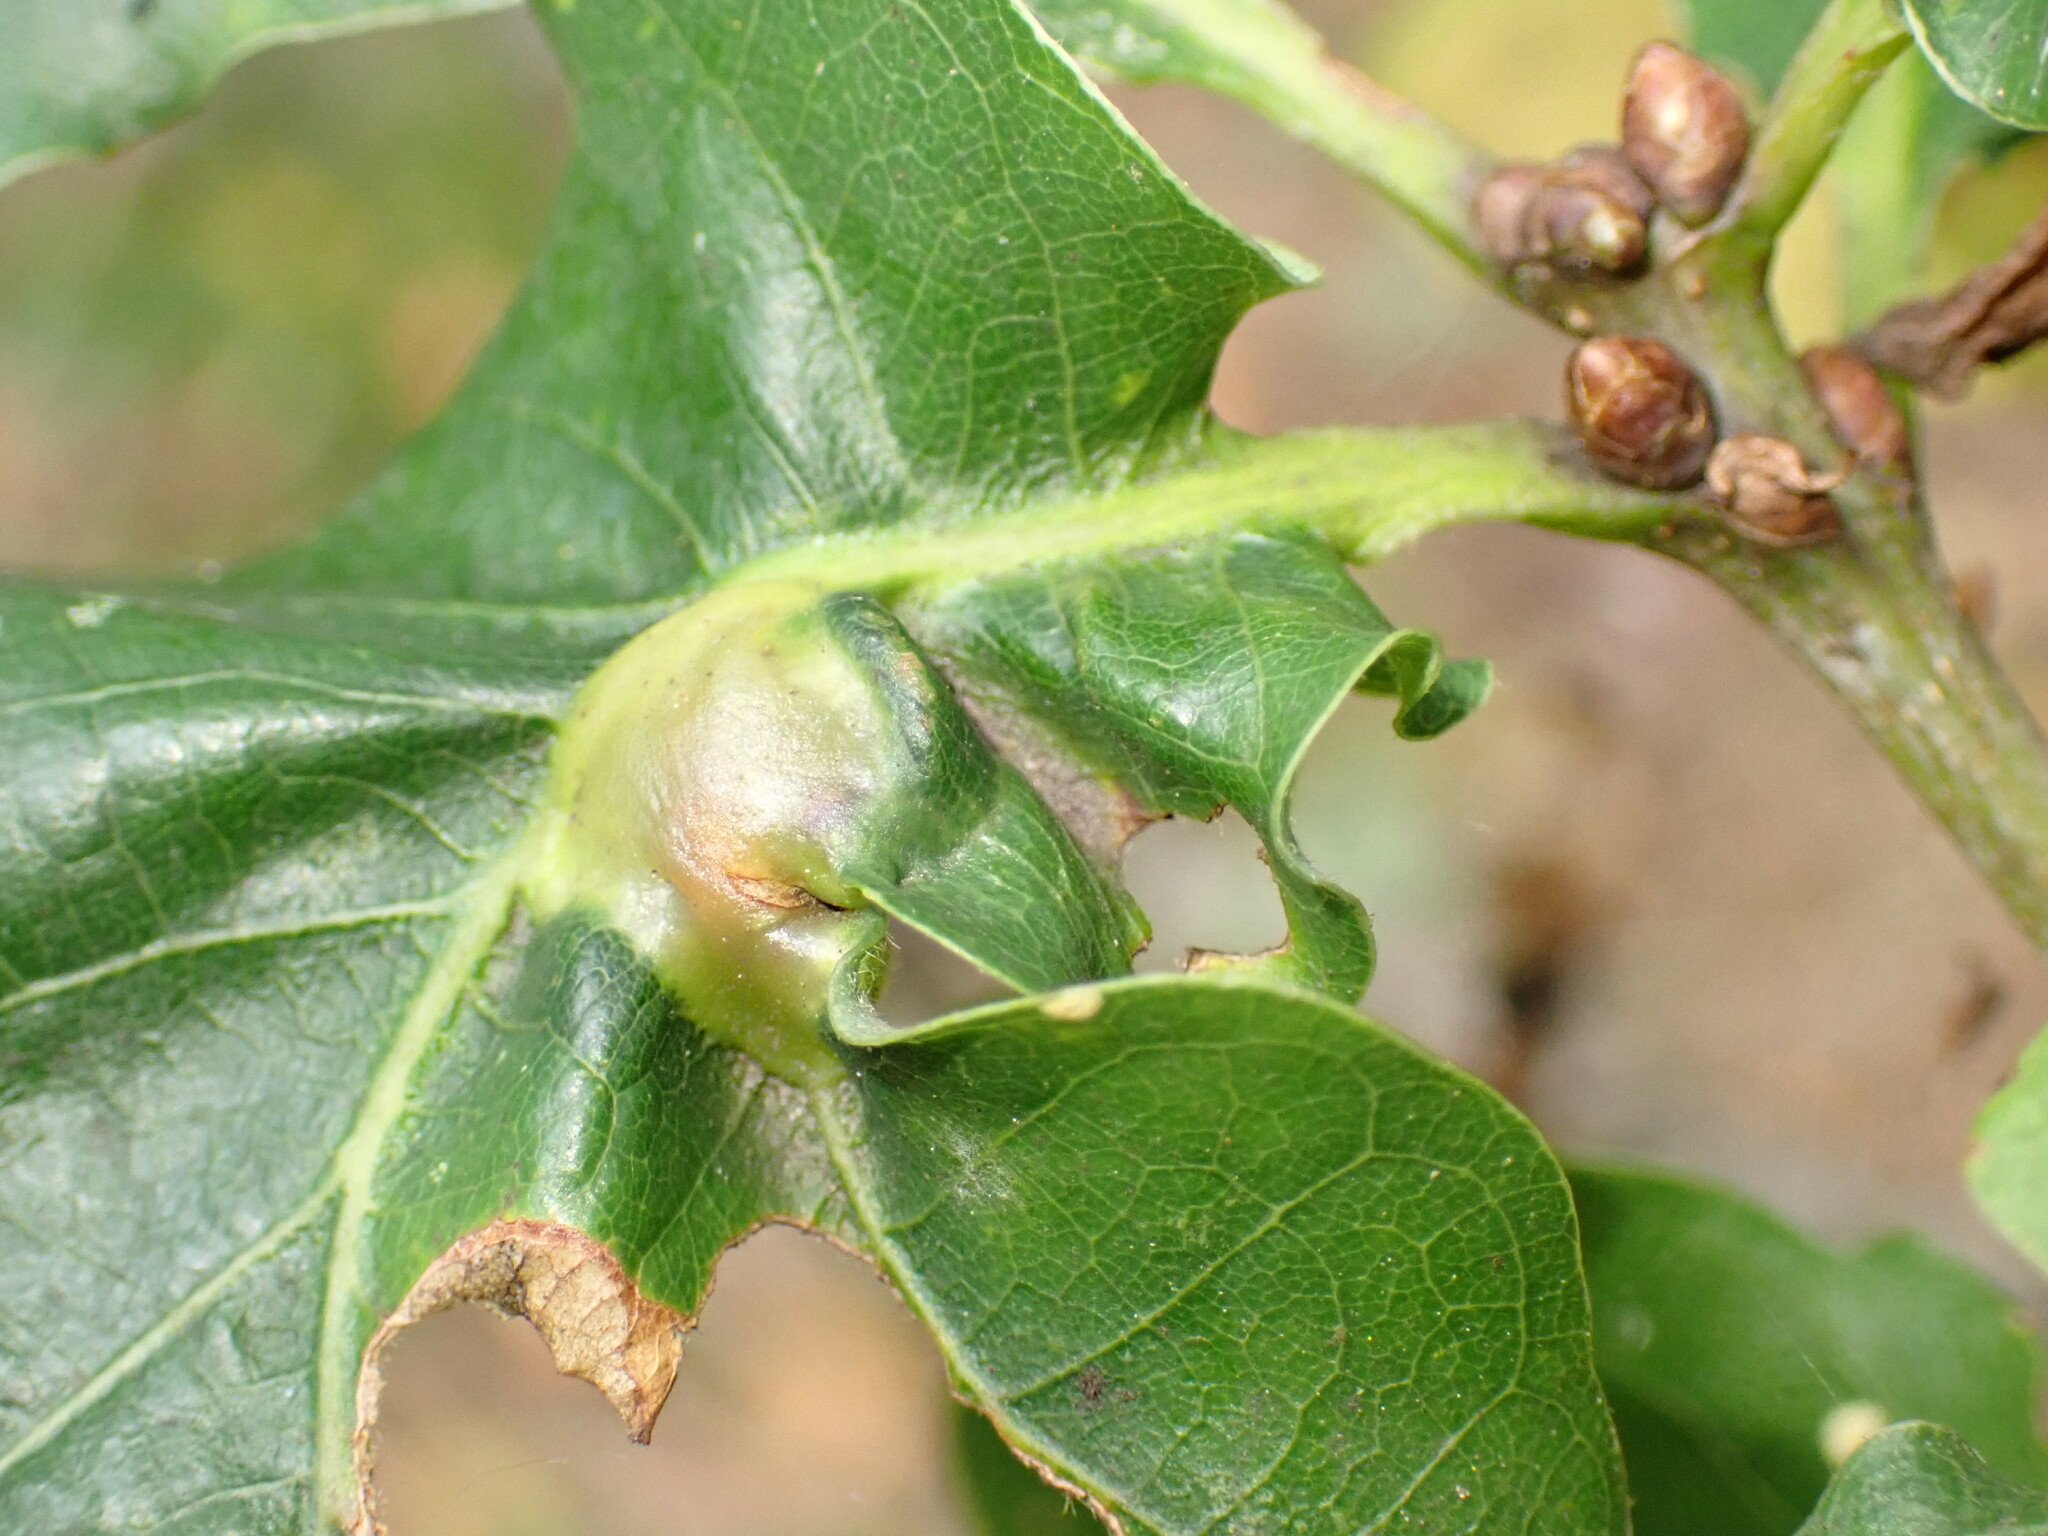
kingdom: Animalia
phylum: Arthropoda
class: Insecta
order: Hymenoptera
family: Cynipidae
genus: Andricus
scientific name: Andricus curvator
